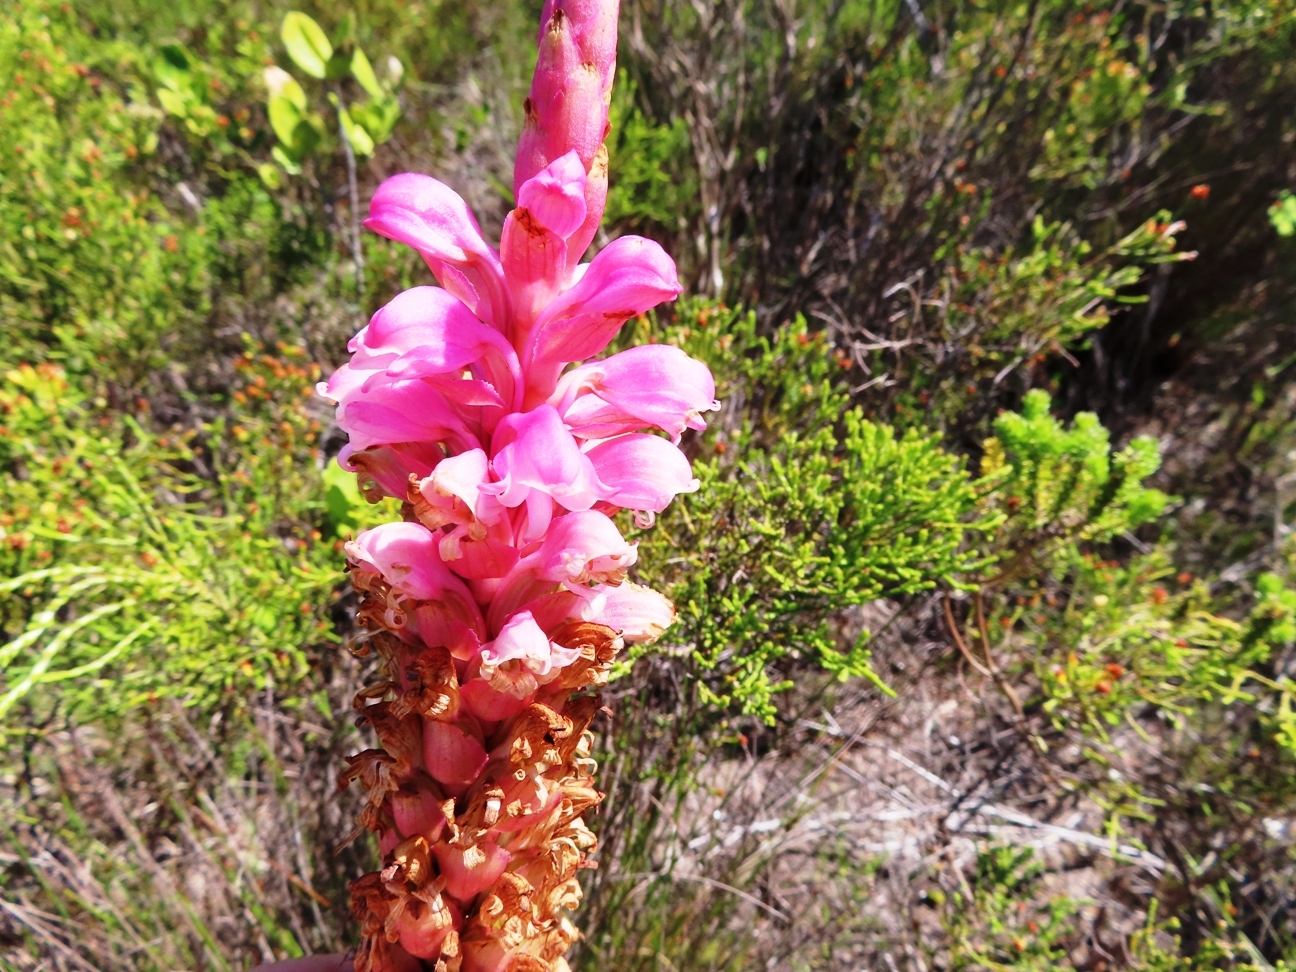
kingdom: Plantae
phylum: Tracheophyta
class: Liliopsida
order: Asparagales
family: Orchidaceae
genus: Satyrium
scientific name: Satyrium carneum
